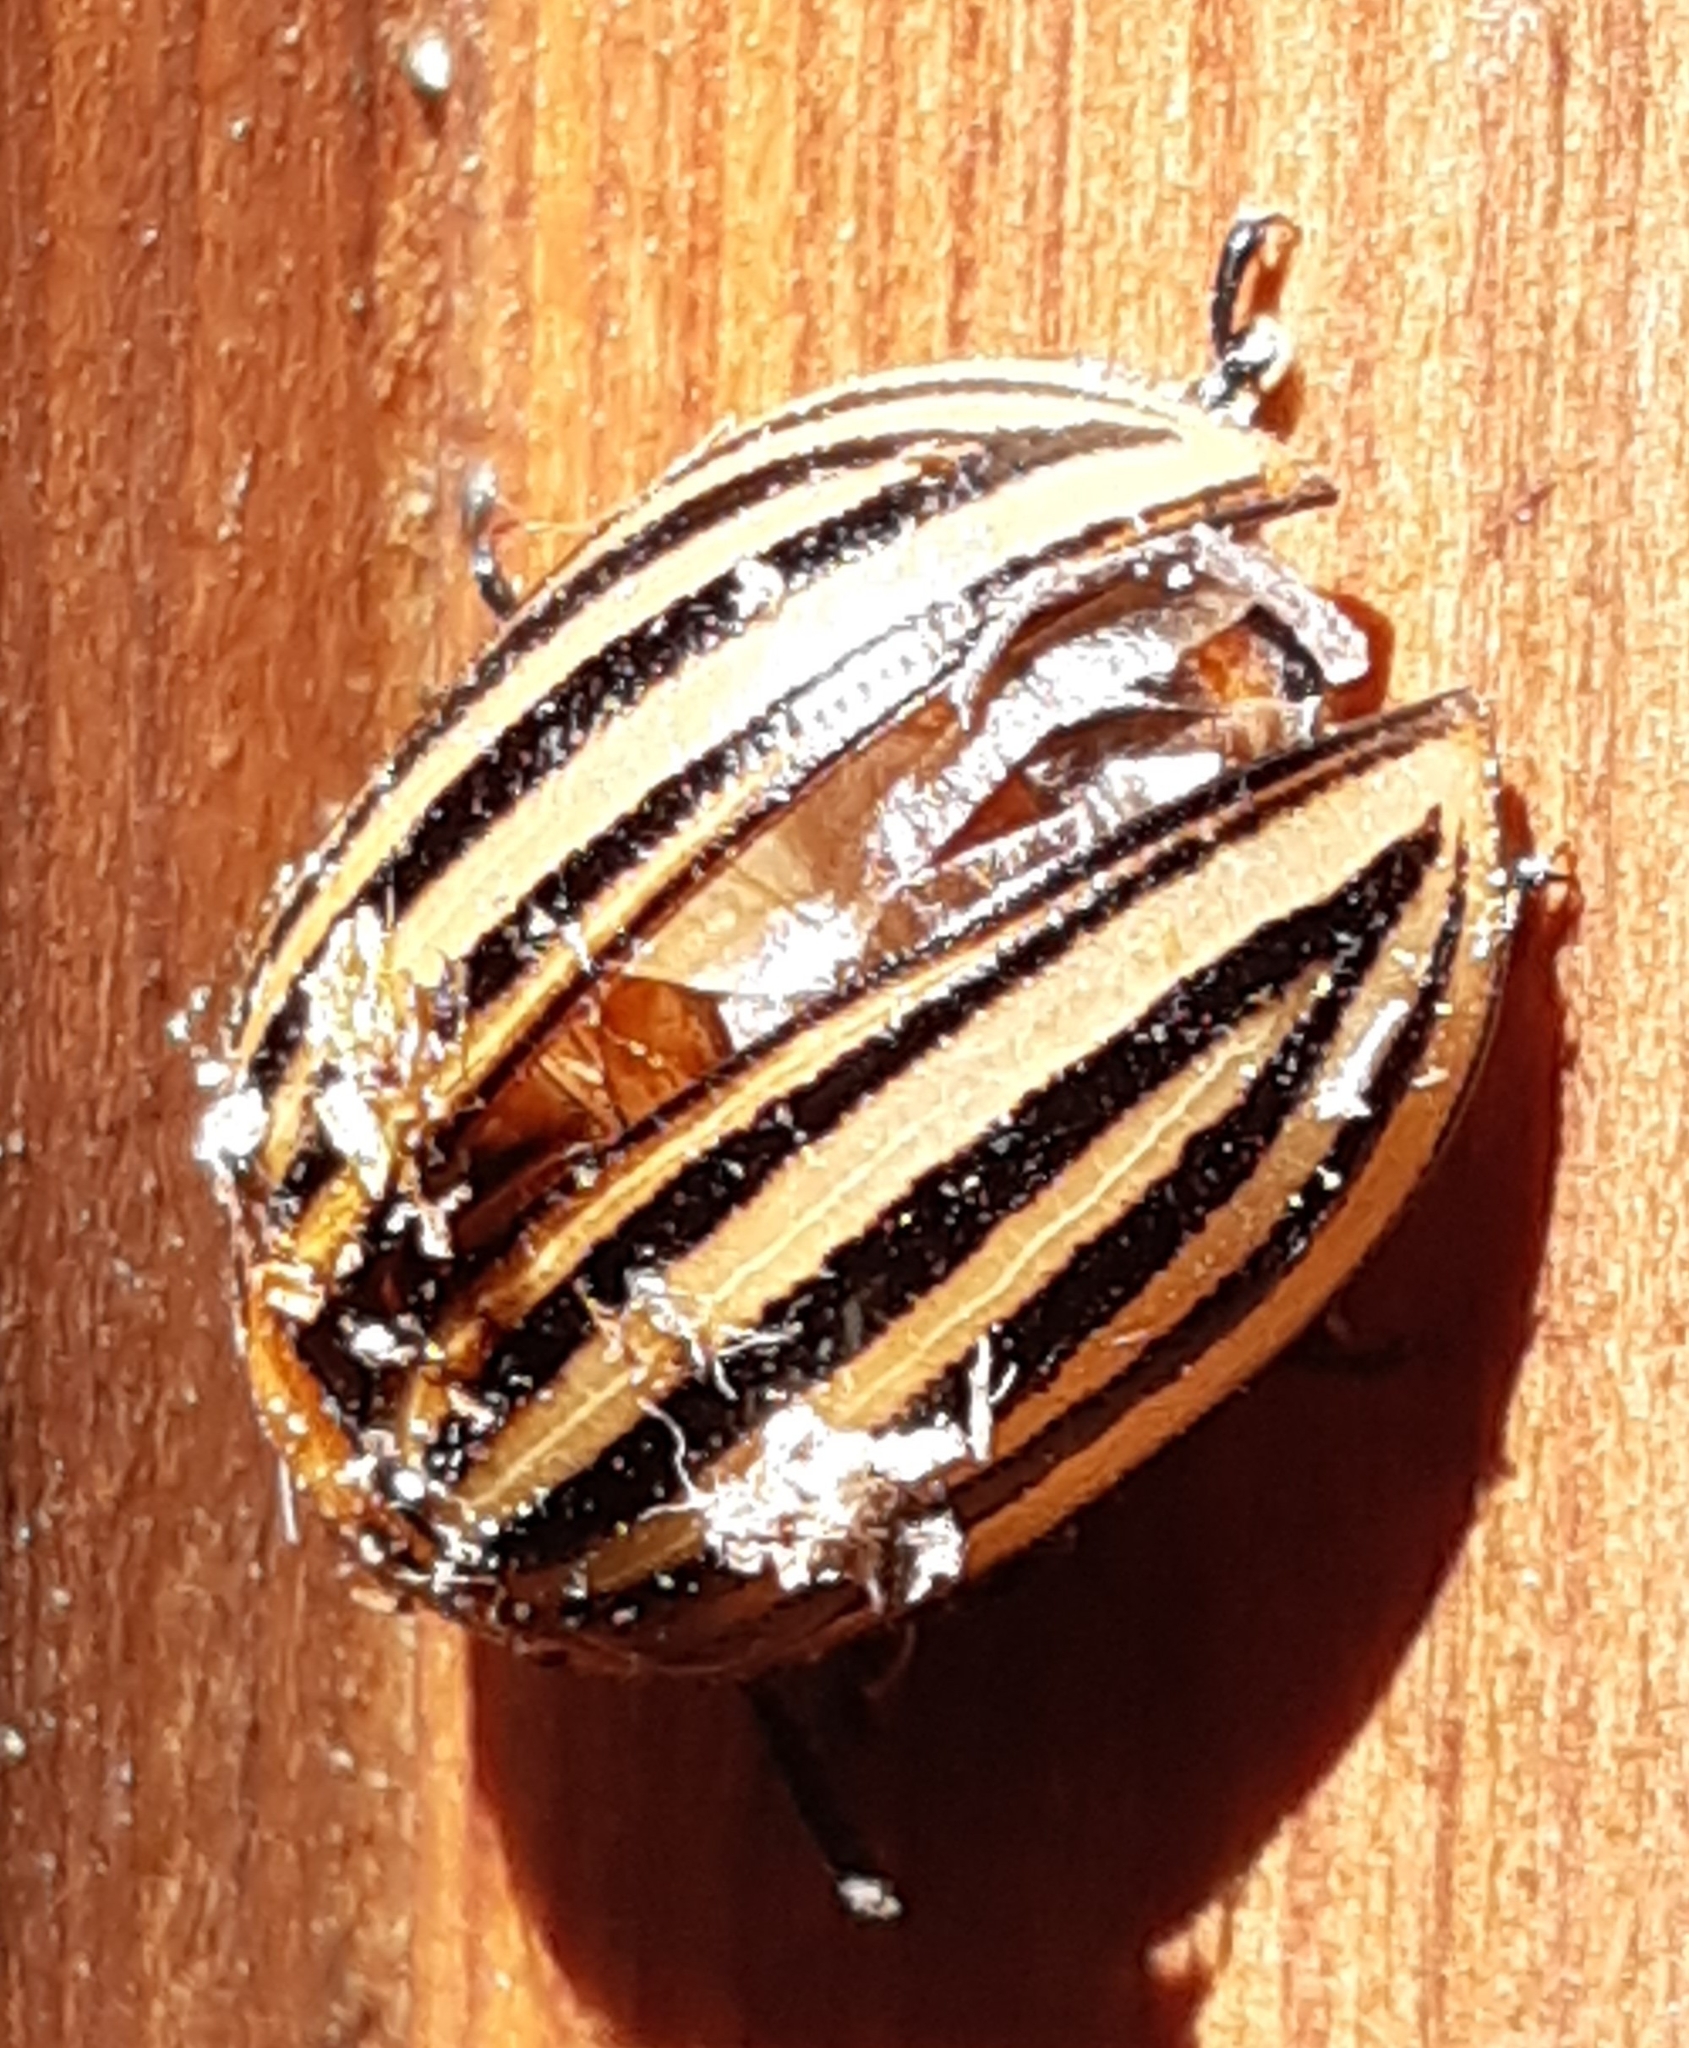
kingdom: Animalia
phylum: Arthropoda
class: Insecta
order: Coleoptera
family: Chrysomelidae
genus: Leptinotarsa
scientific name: Leptinotarsa decemlineata
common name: Colorado potato beetle
